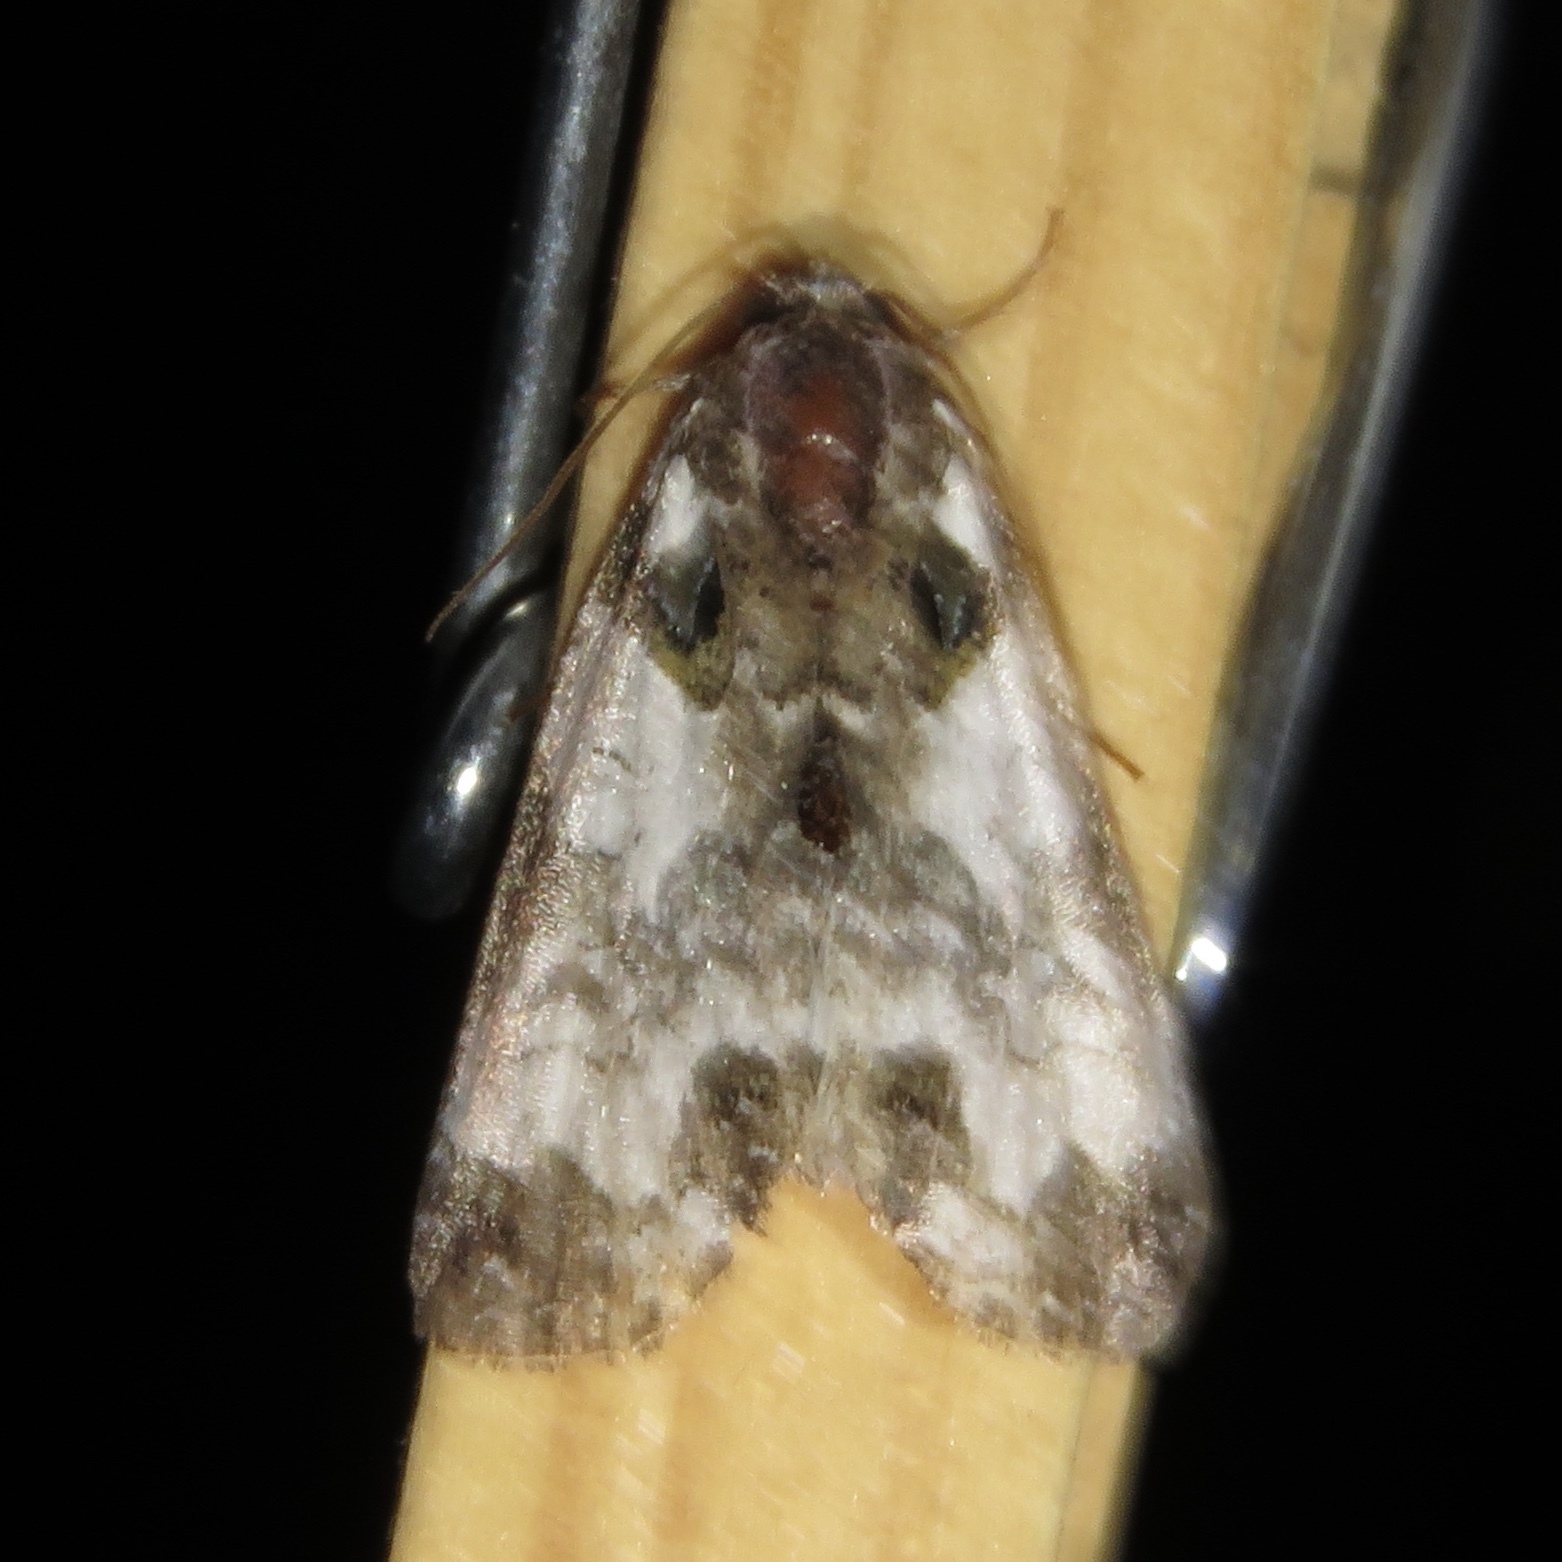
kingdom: Animalia
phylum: Arthropoda
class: Insecta
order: Lepidoptera
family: Noctuidae
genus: Cerma
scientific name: Cerma cerintha
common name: Tufted bird-dropping moth
